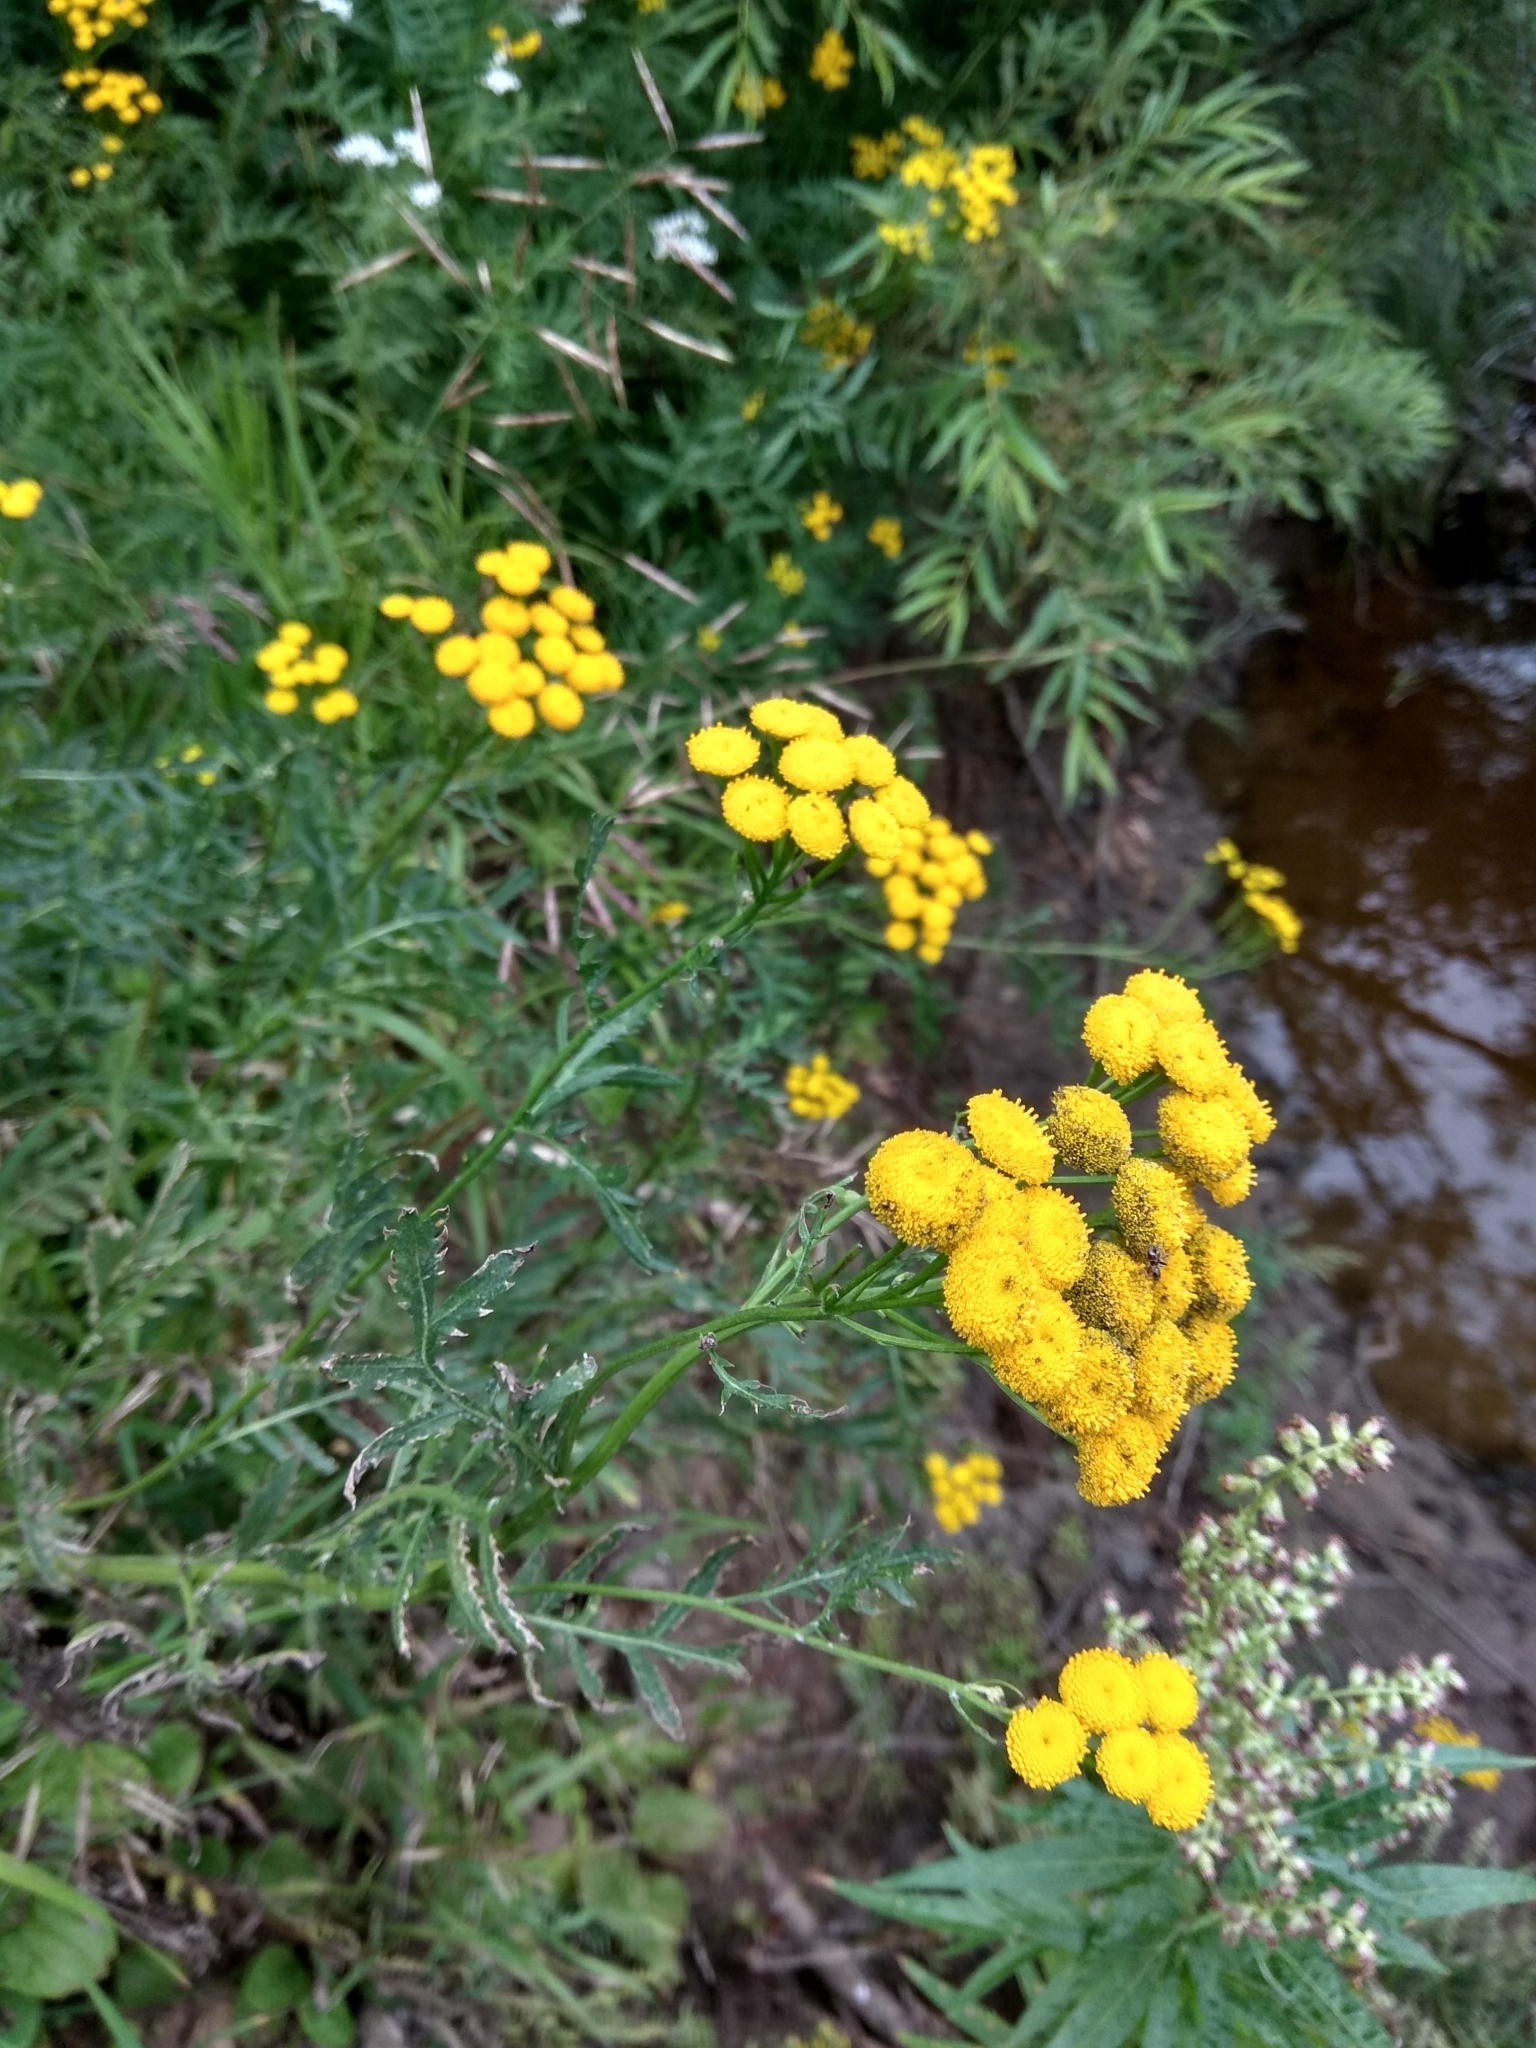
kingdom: Plantae
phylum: Tracheophyta
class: Magnoliopsida
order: Asterales
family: Asteraceae
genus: Tanacetum
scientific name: Tanacetum vulgare
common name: Common tansy
